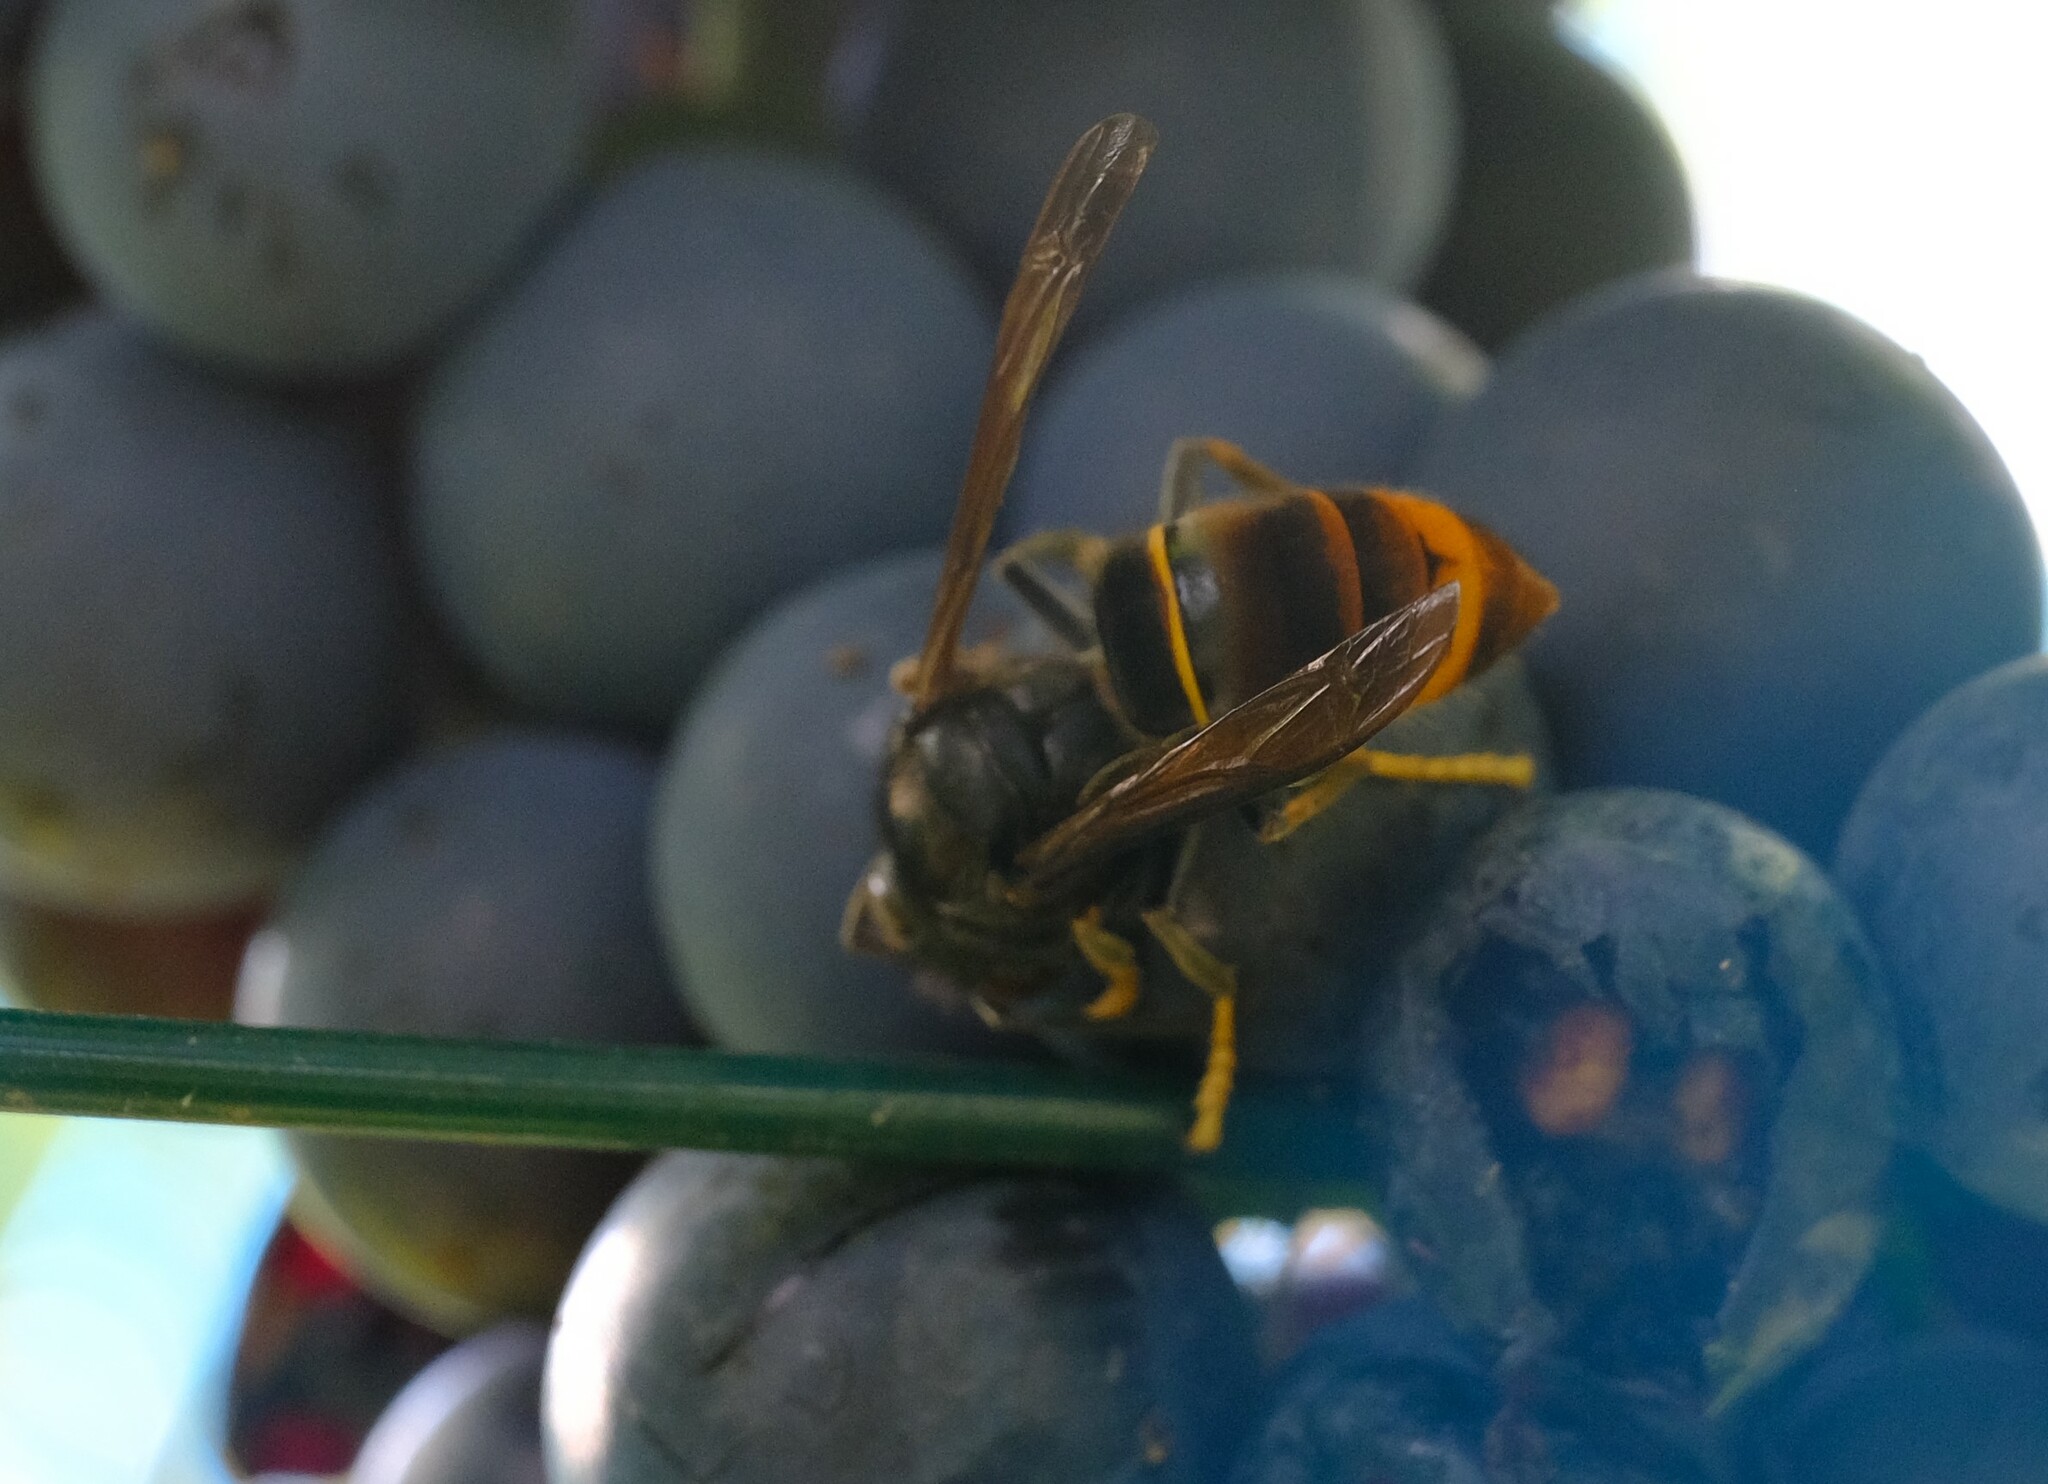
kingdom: Animalia
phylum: Arthropoda
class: Insecta
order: Hymenoptera
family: Vespidae
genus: Vespa
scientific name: Vespa velutina
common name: Asian hornet
